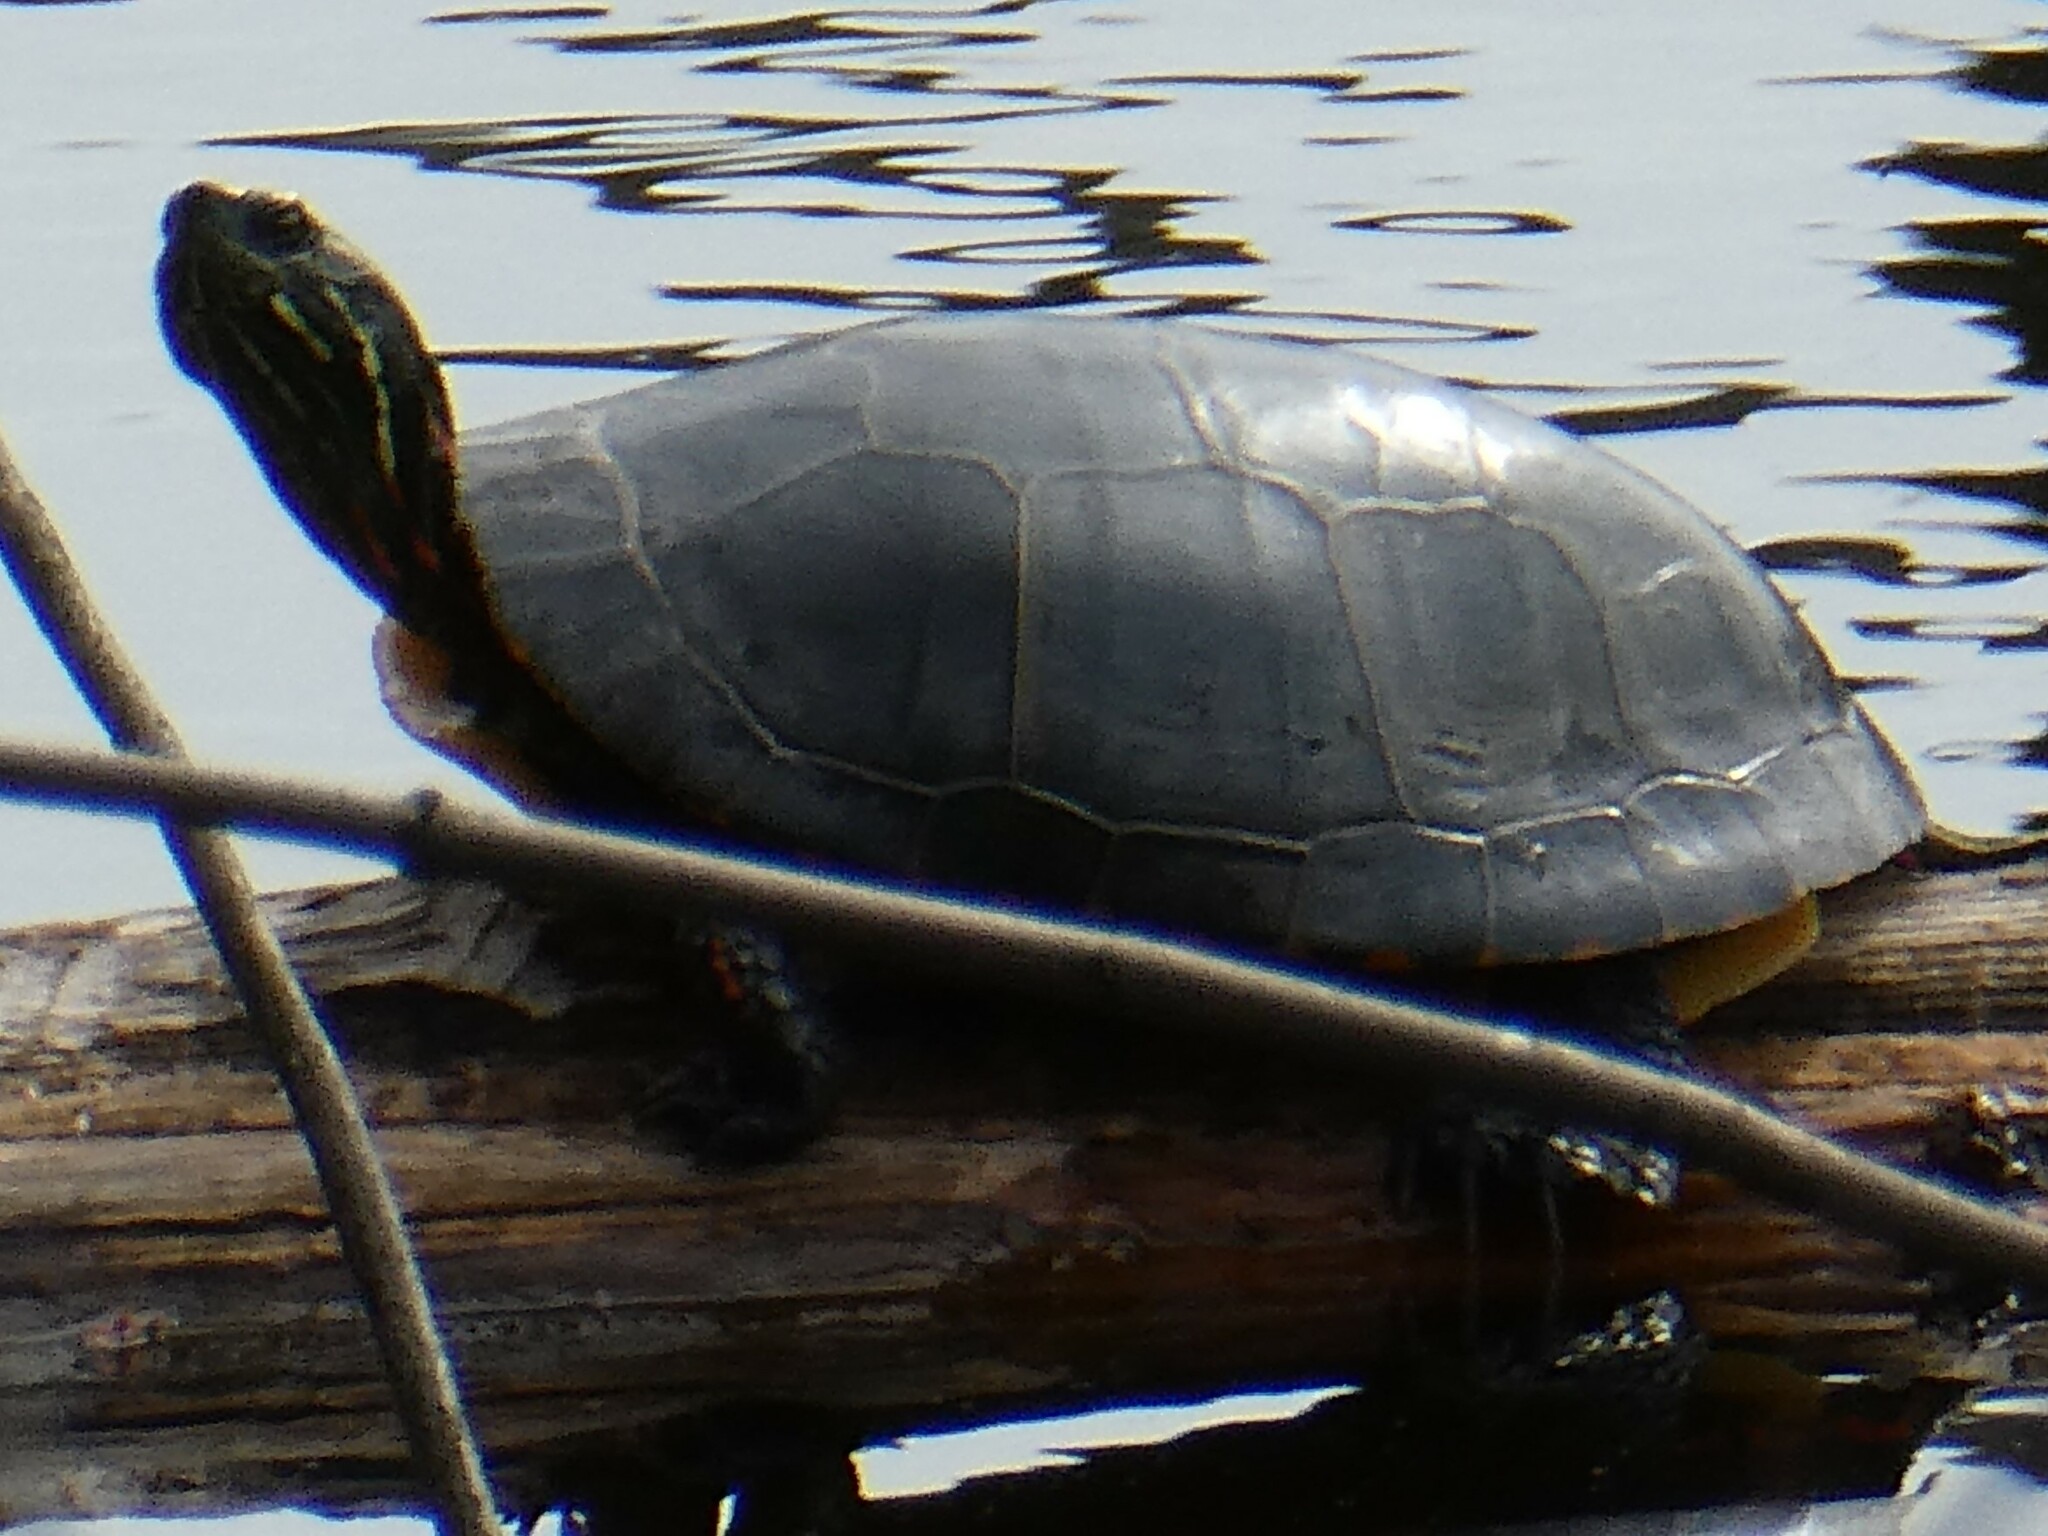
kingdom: Animalia
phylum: Chordata
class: Testudines
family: Emydidae
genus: Chrysemys
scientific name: Chrysemys picta
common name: Painted turtle
